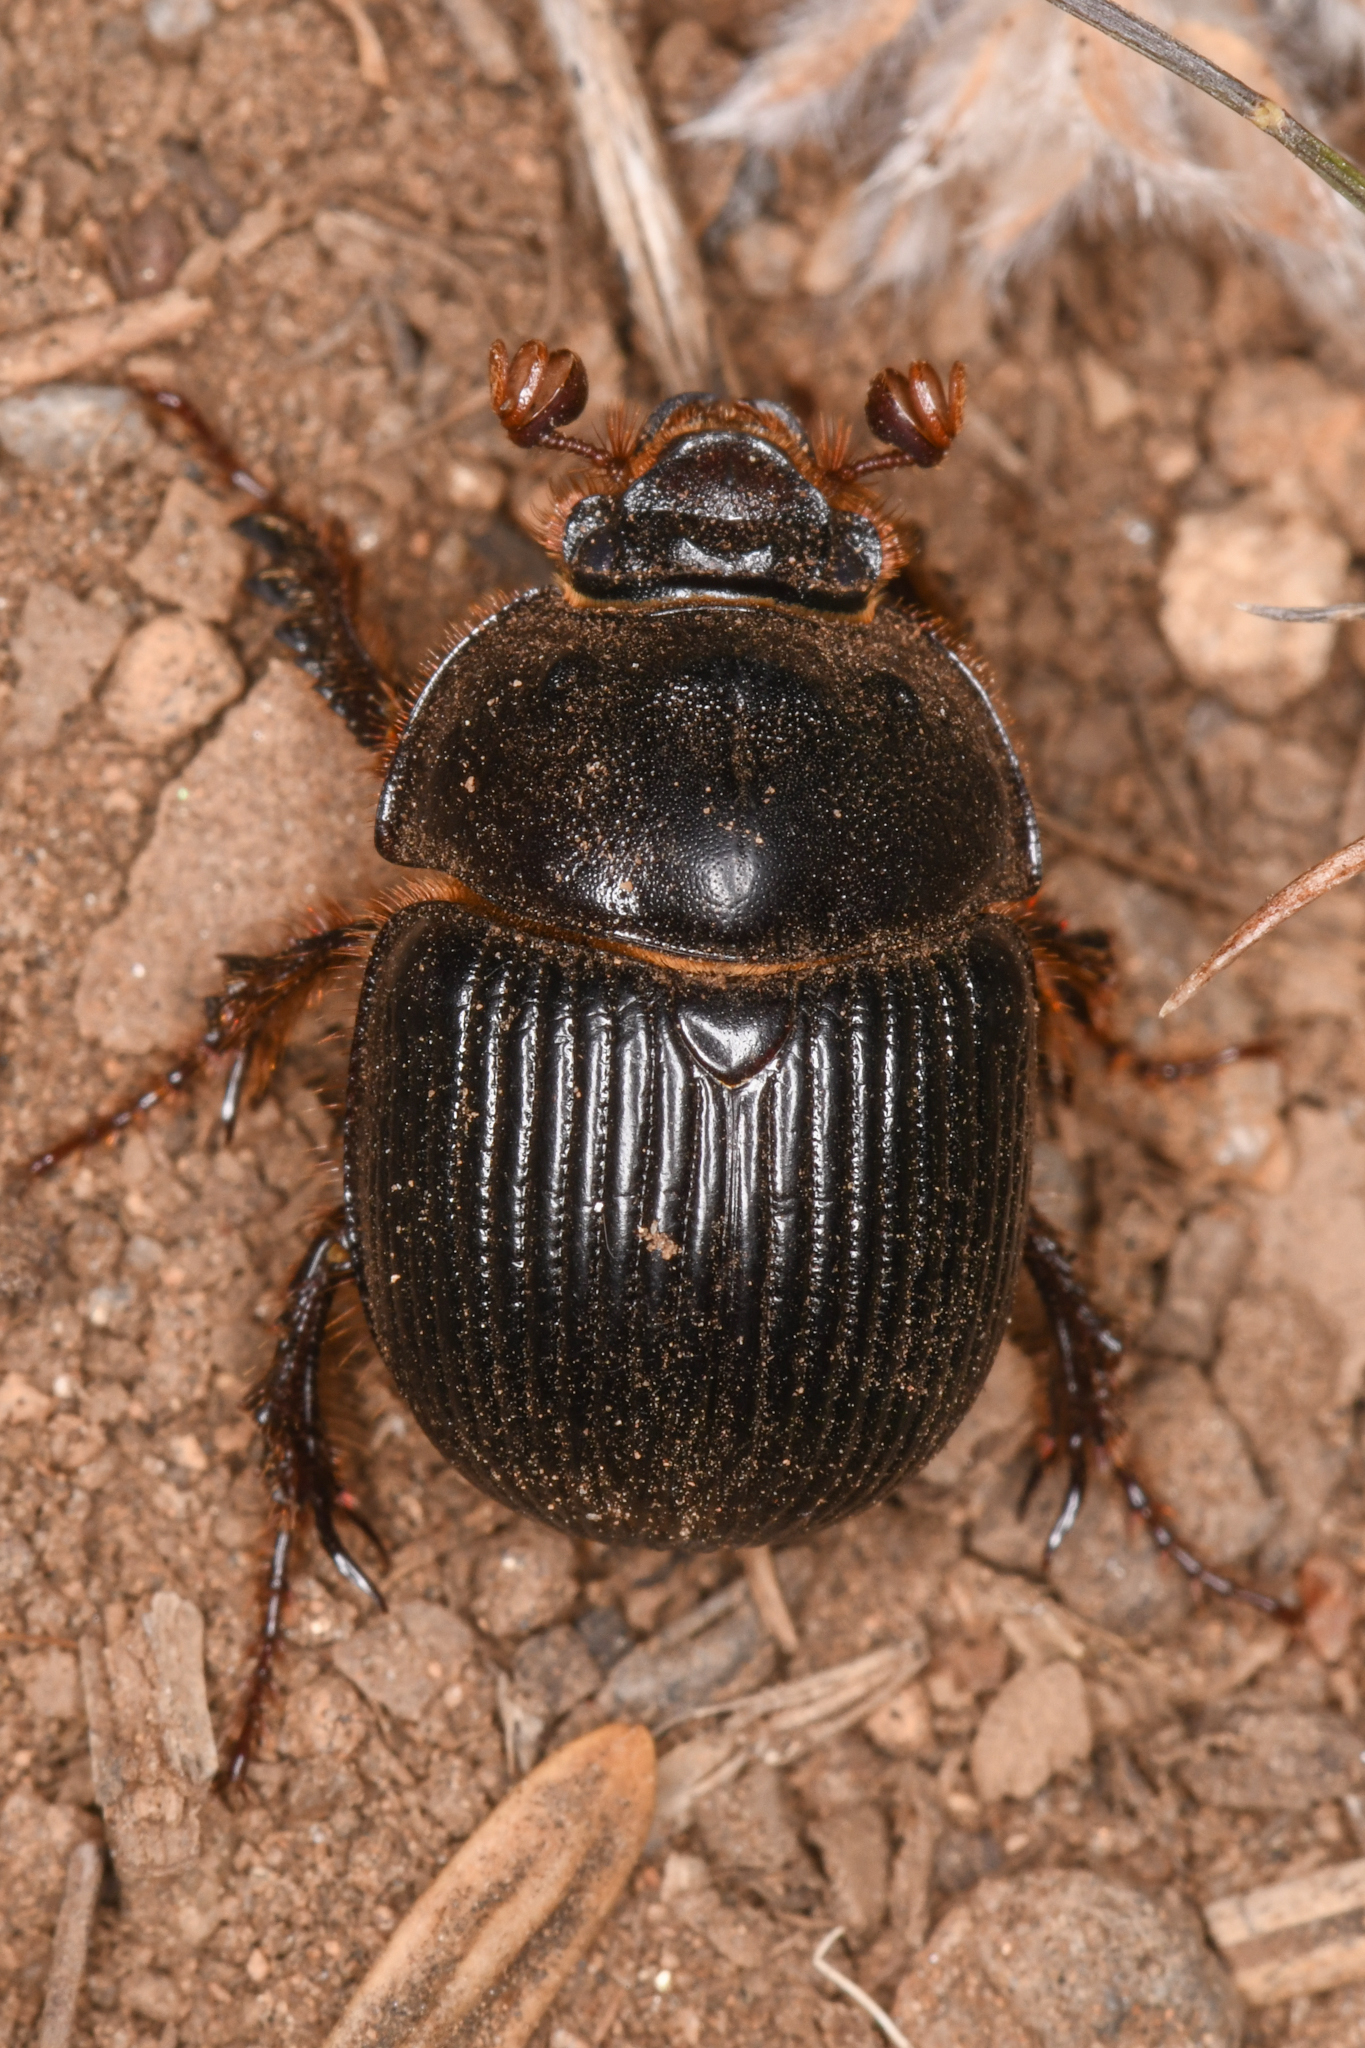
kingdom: Animalia
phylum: Arthropoda
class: Insecta
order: Coleoptera
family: Geotrupidae
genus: Odonteus
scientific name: Odonteus obesus
